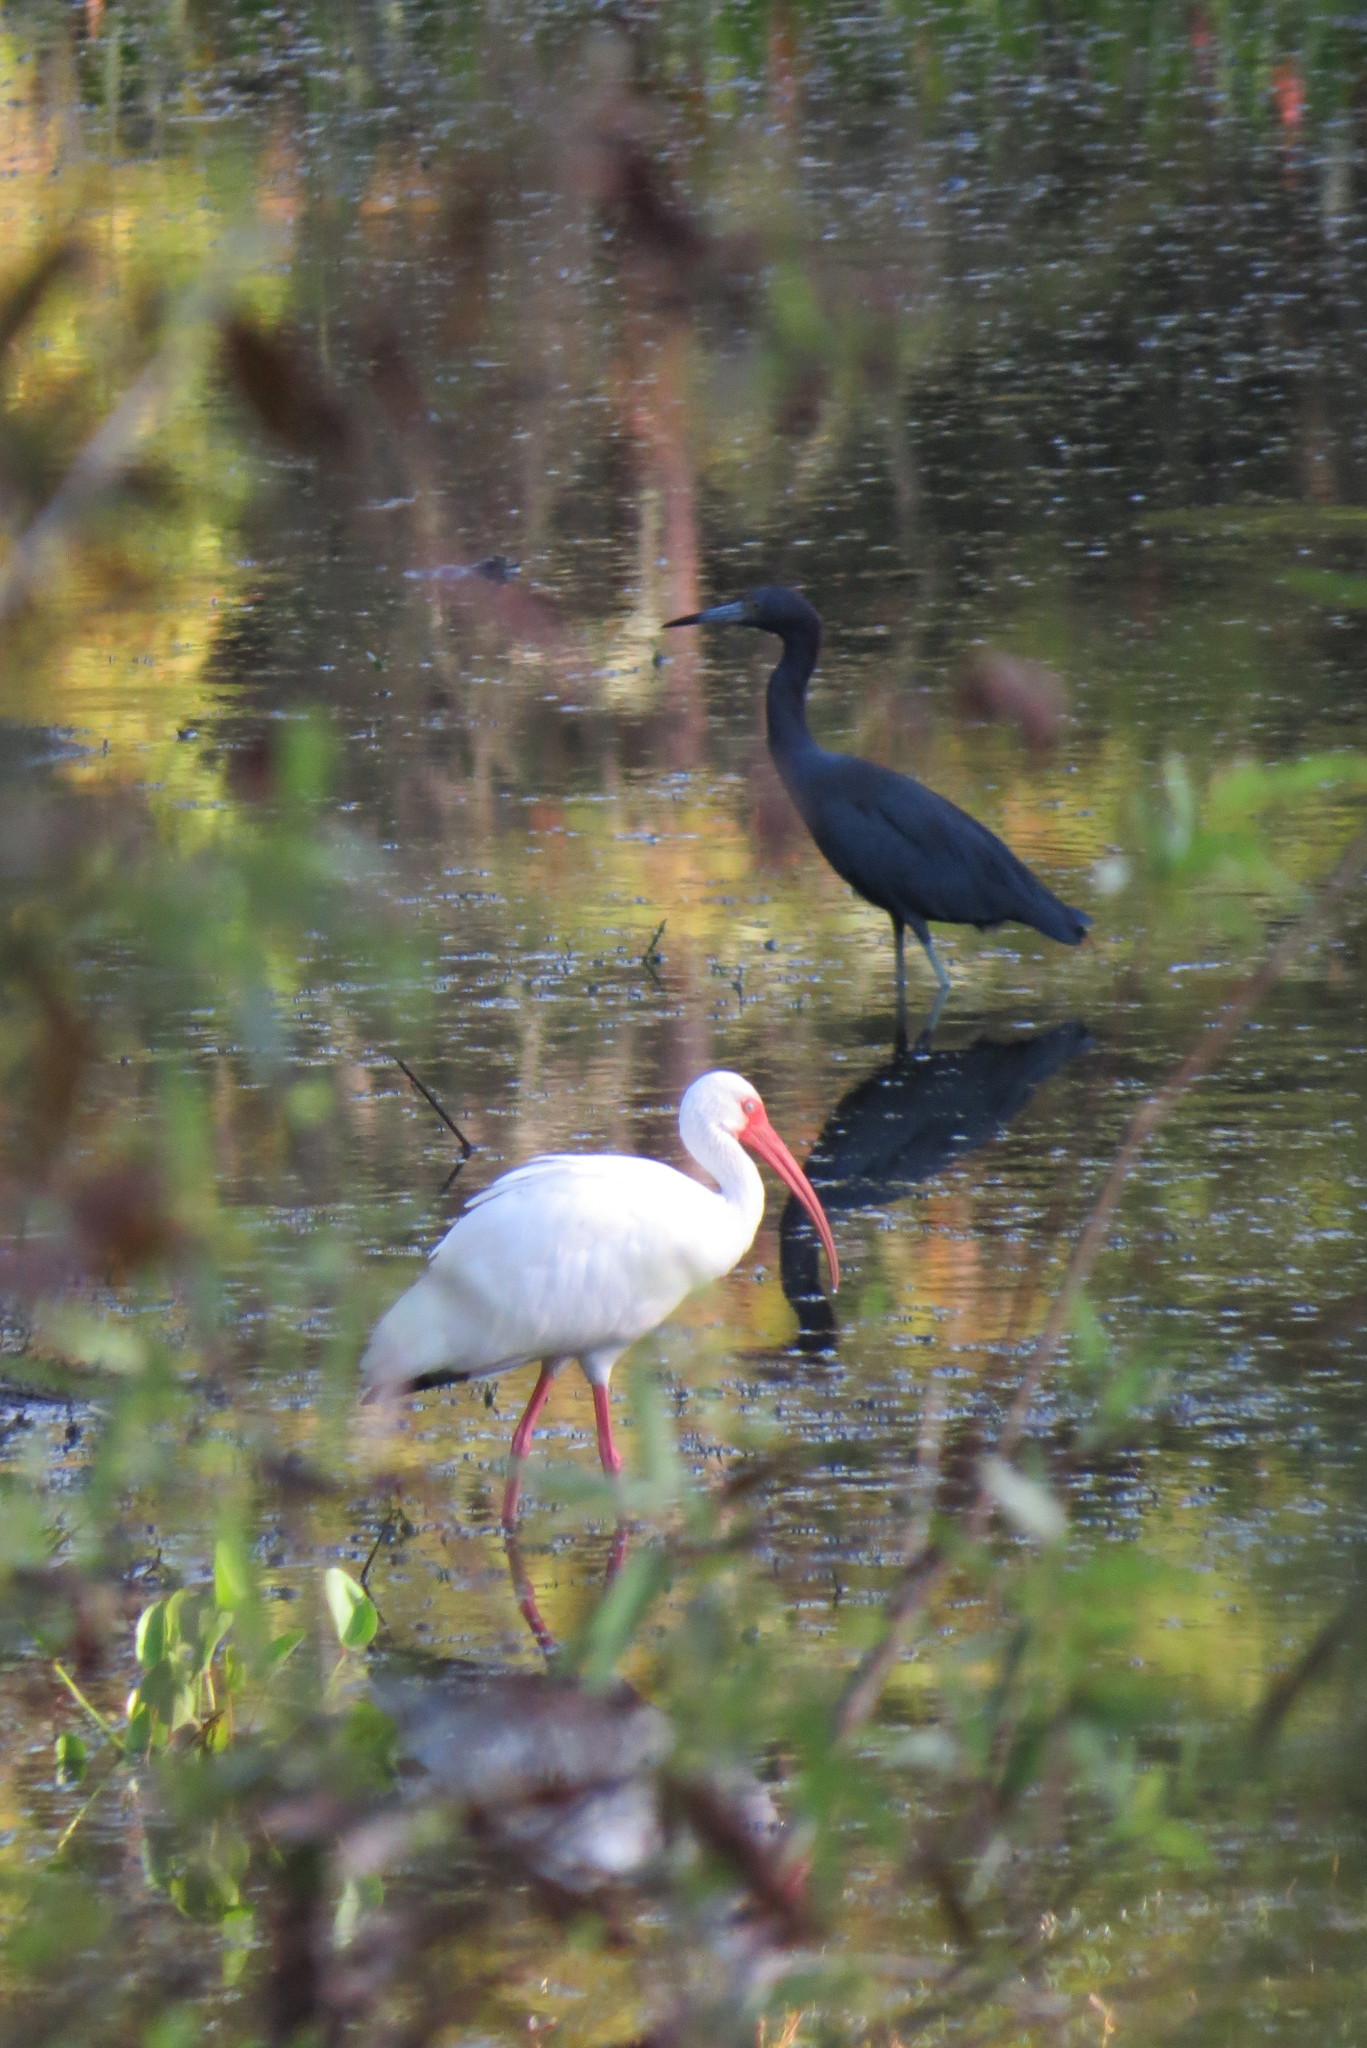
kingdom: Animalia
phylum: Chordata
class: Aves
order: Pelecaniformes
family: Threskiornithidae
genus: Eudocimus
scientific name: Eudocimus albus
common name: White ibis
